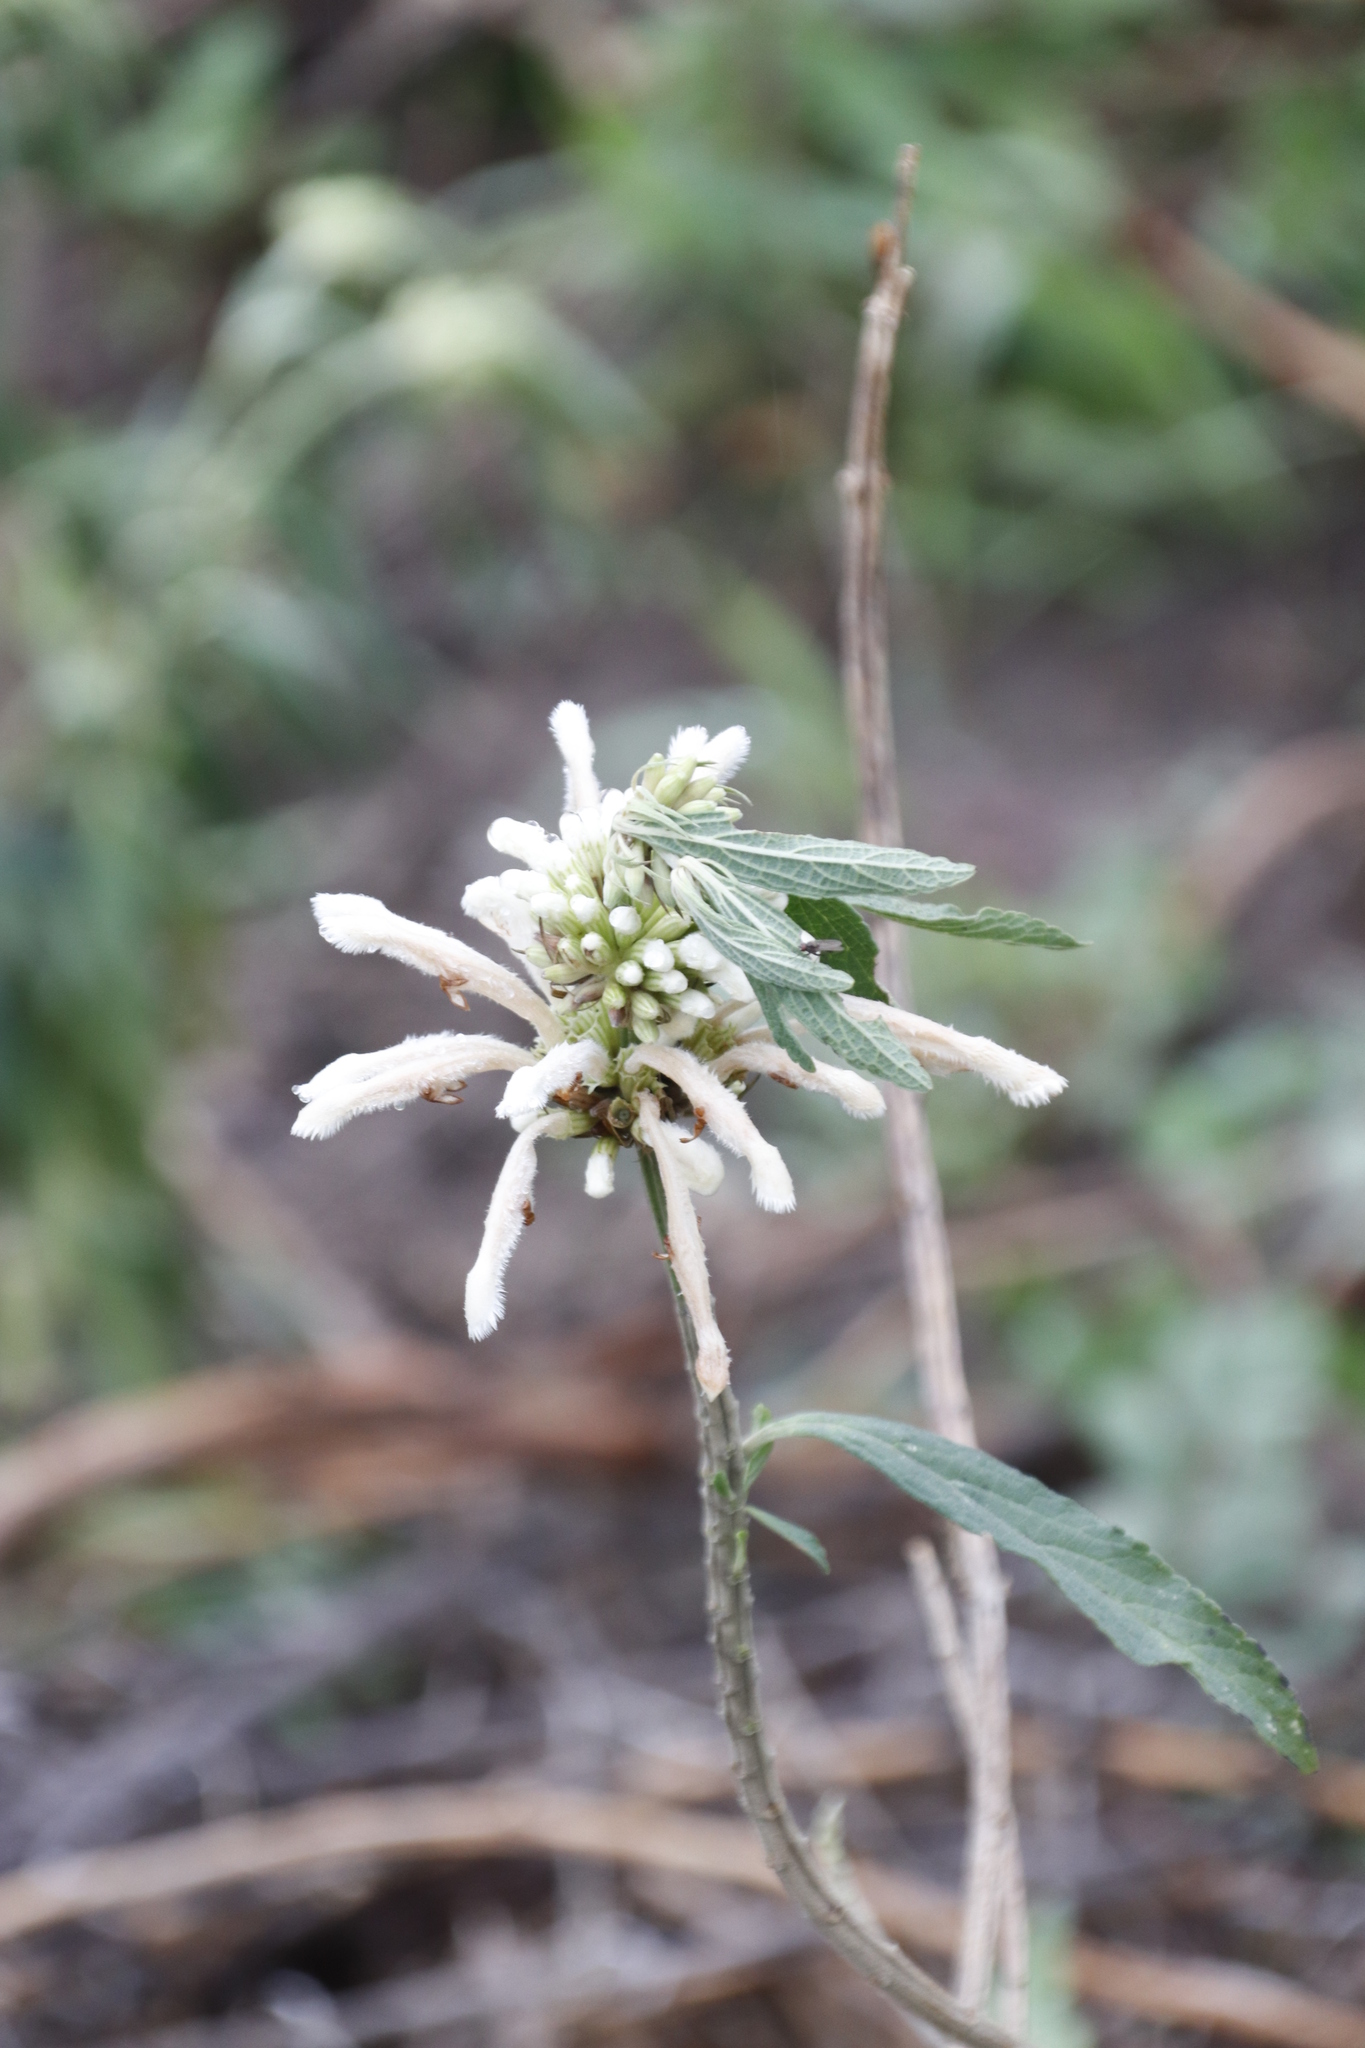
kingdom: Plantae
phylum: Tracheophyta
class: Magnoliopsida
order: Lamiales
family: Lamiaceae
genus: Leonotis
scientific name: Leonotis leonurus
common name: Lion's ear
